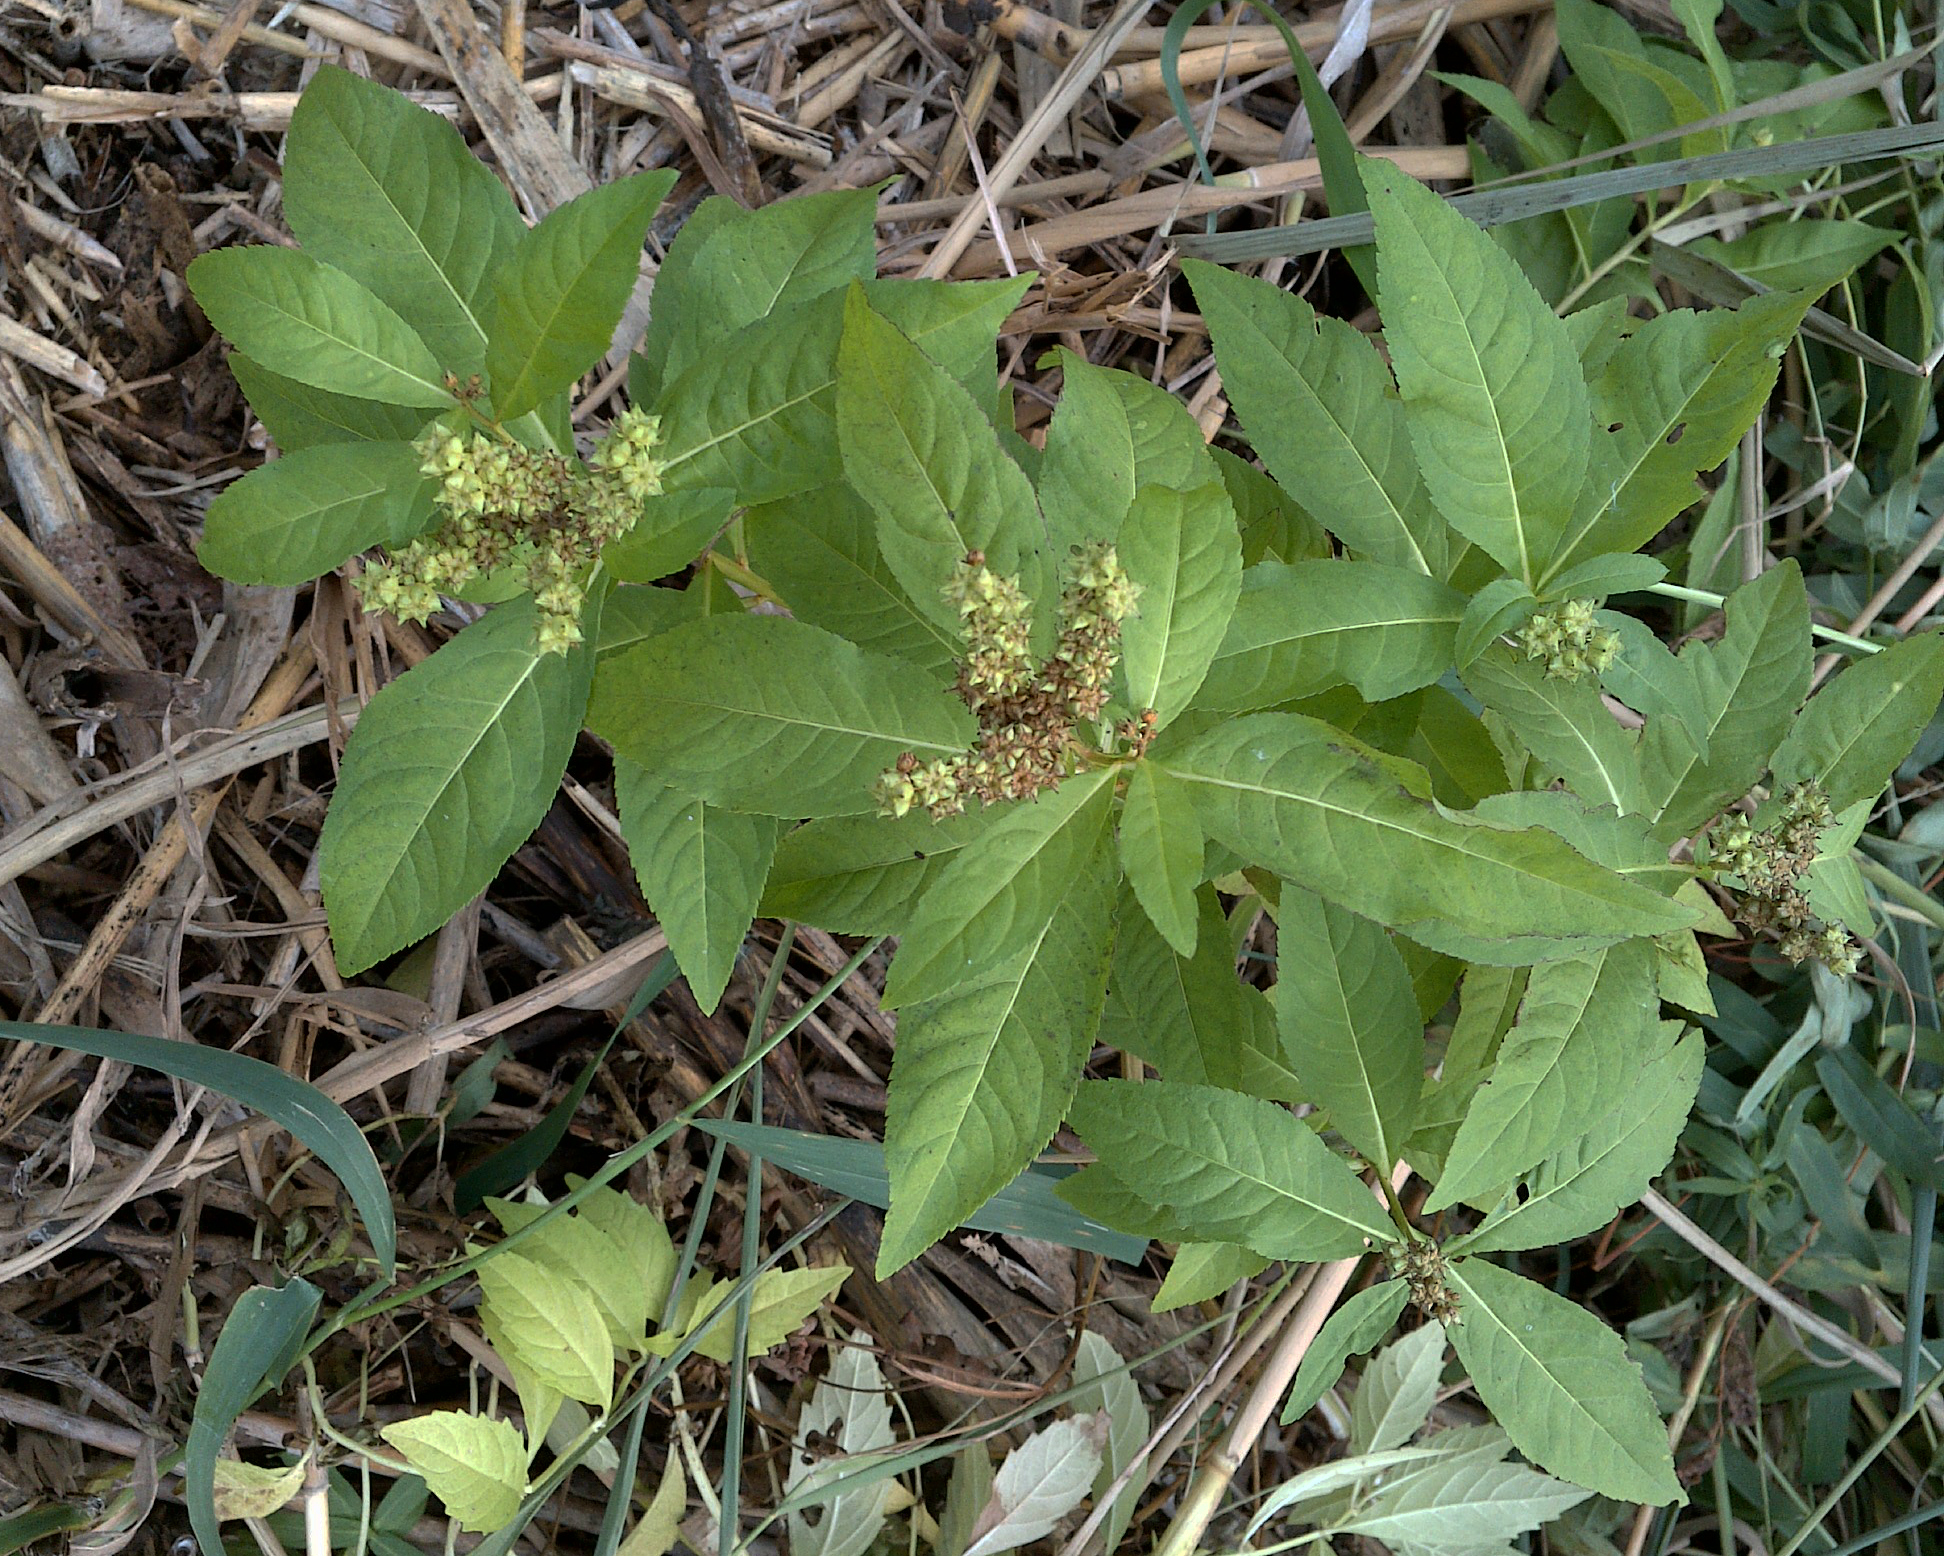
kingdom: Plantae
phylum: Tracheophyta
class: Magnoliopsida
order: Saxifragales
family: Penthoraceae
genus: Penthorum
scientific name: Penthorum sedoides
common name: Ditch stonecrop
